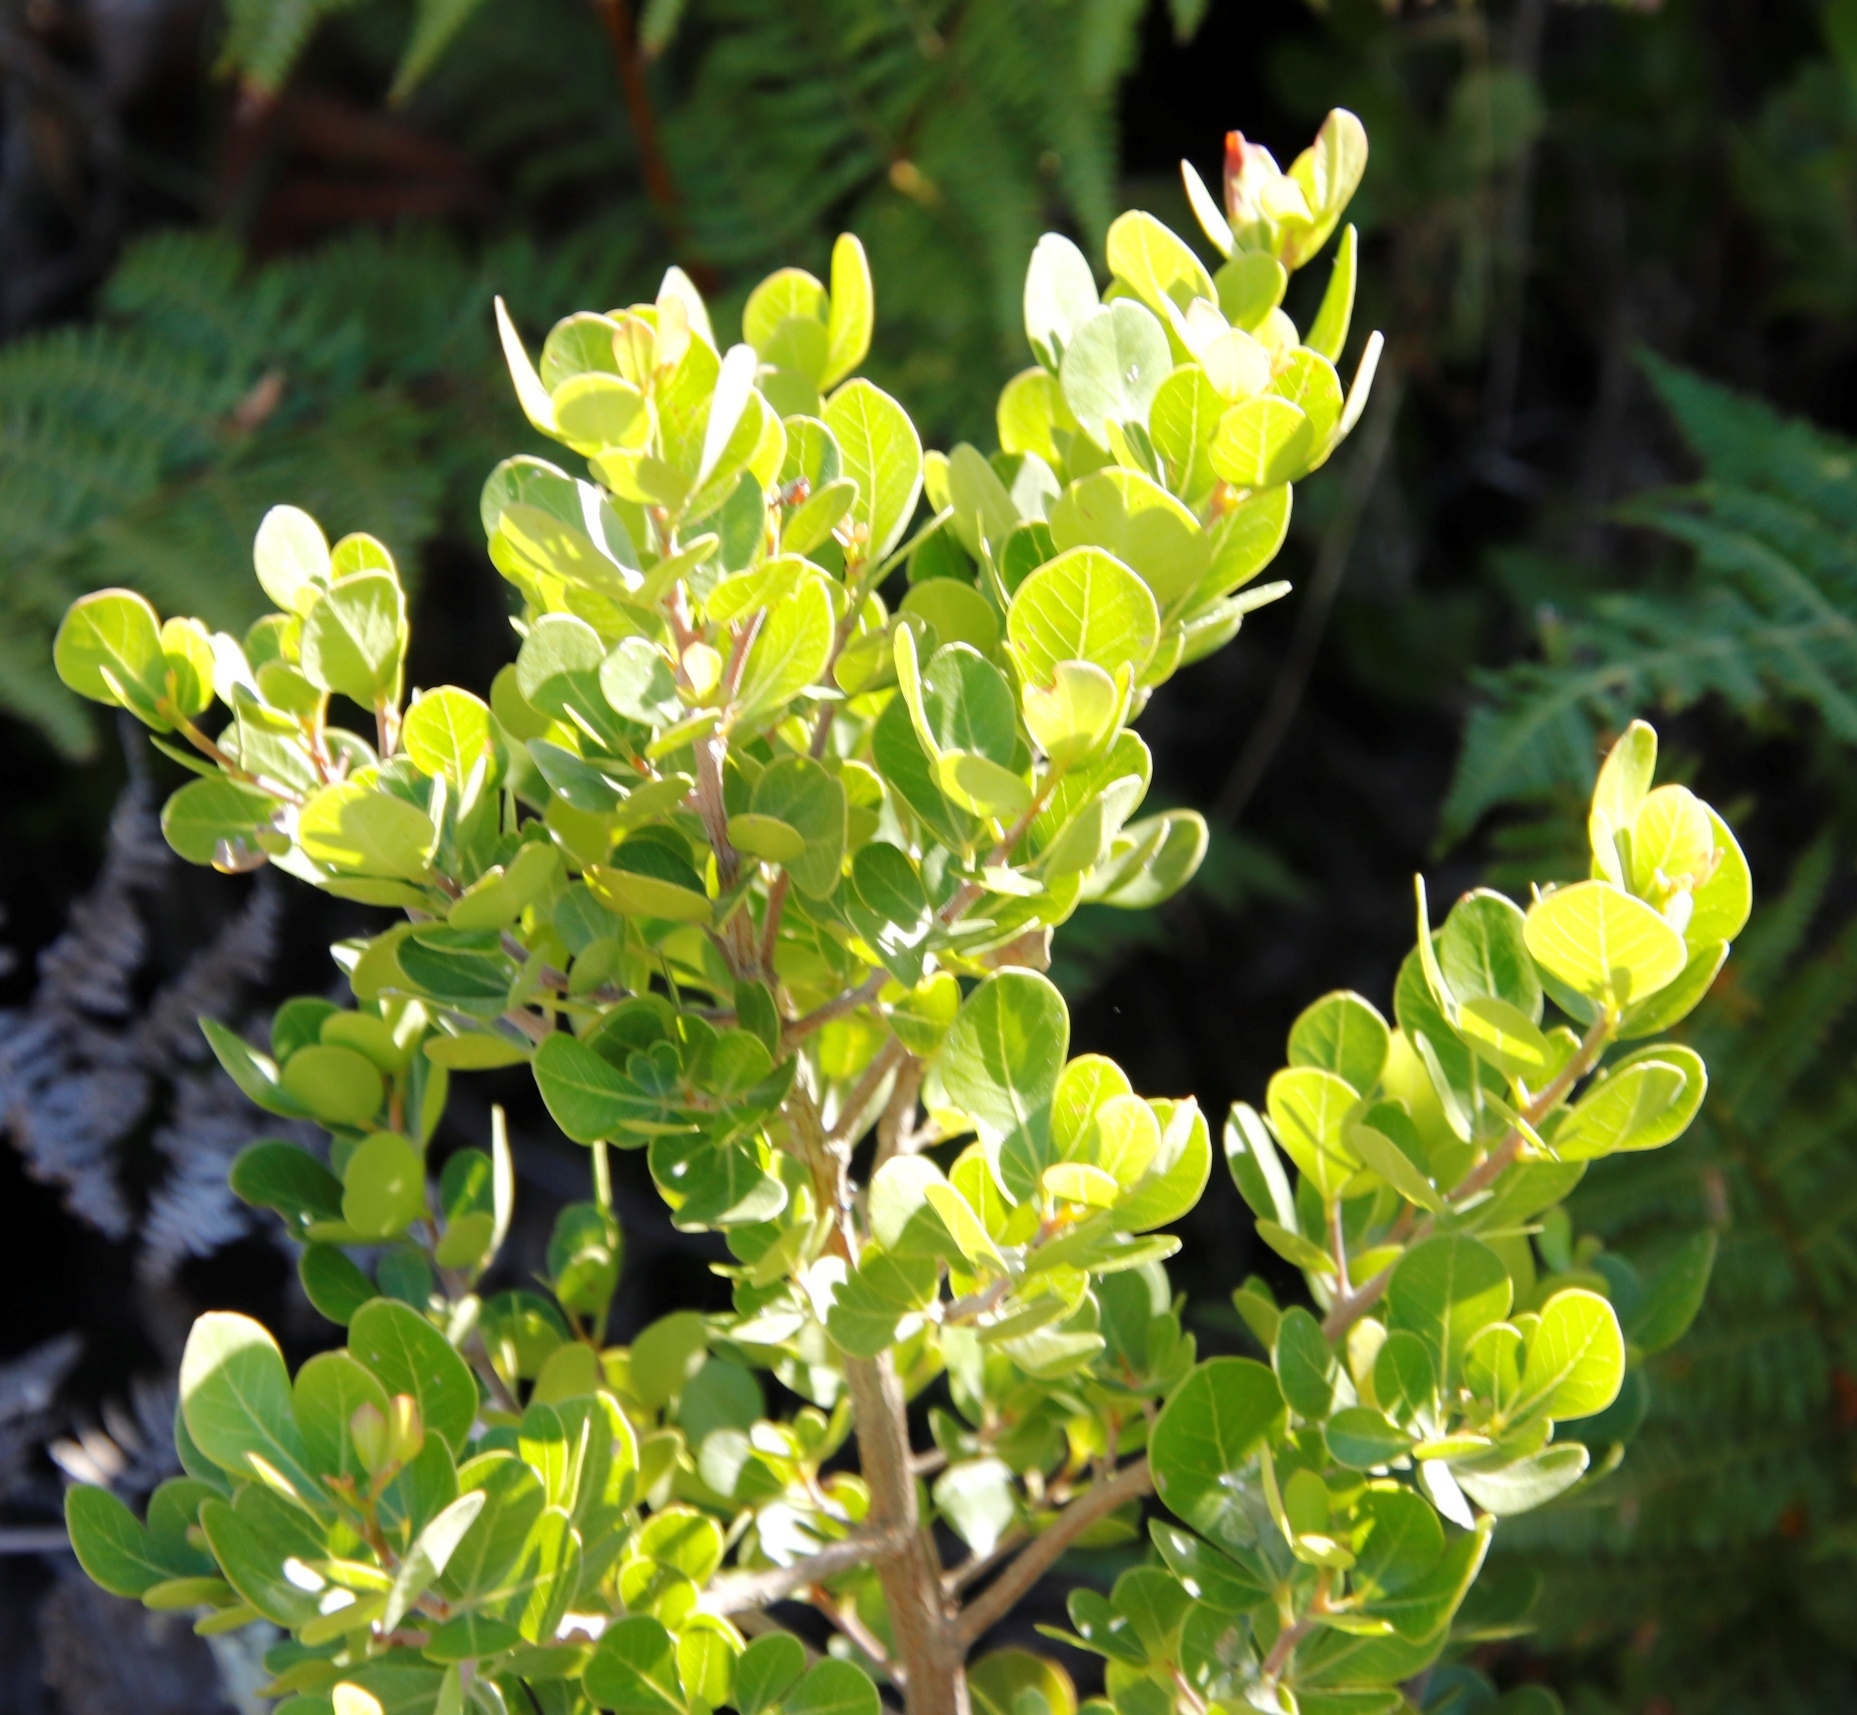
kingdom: Plantae
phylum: Tracheophyta
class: Magnoliopsida
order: Sapindales
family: Anacardiaceae
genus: Searsia
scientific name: Searsia lucida
